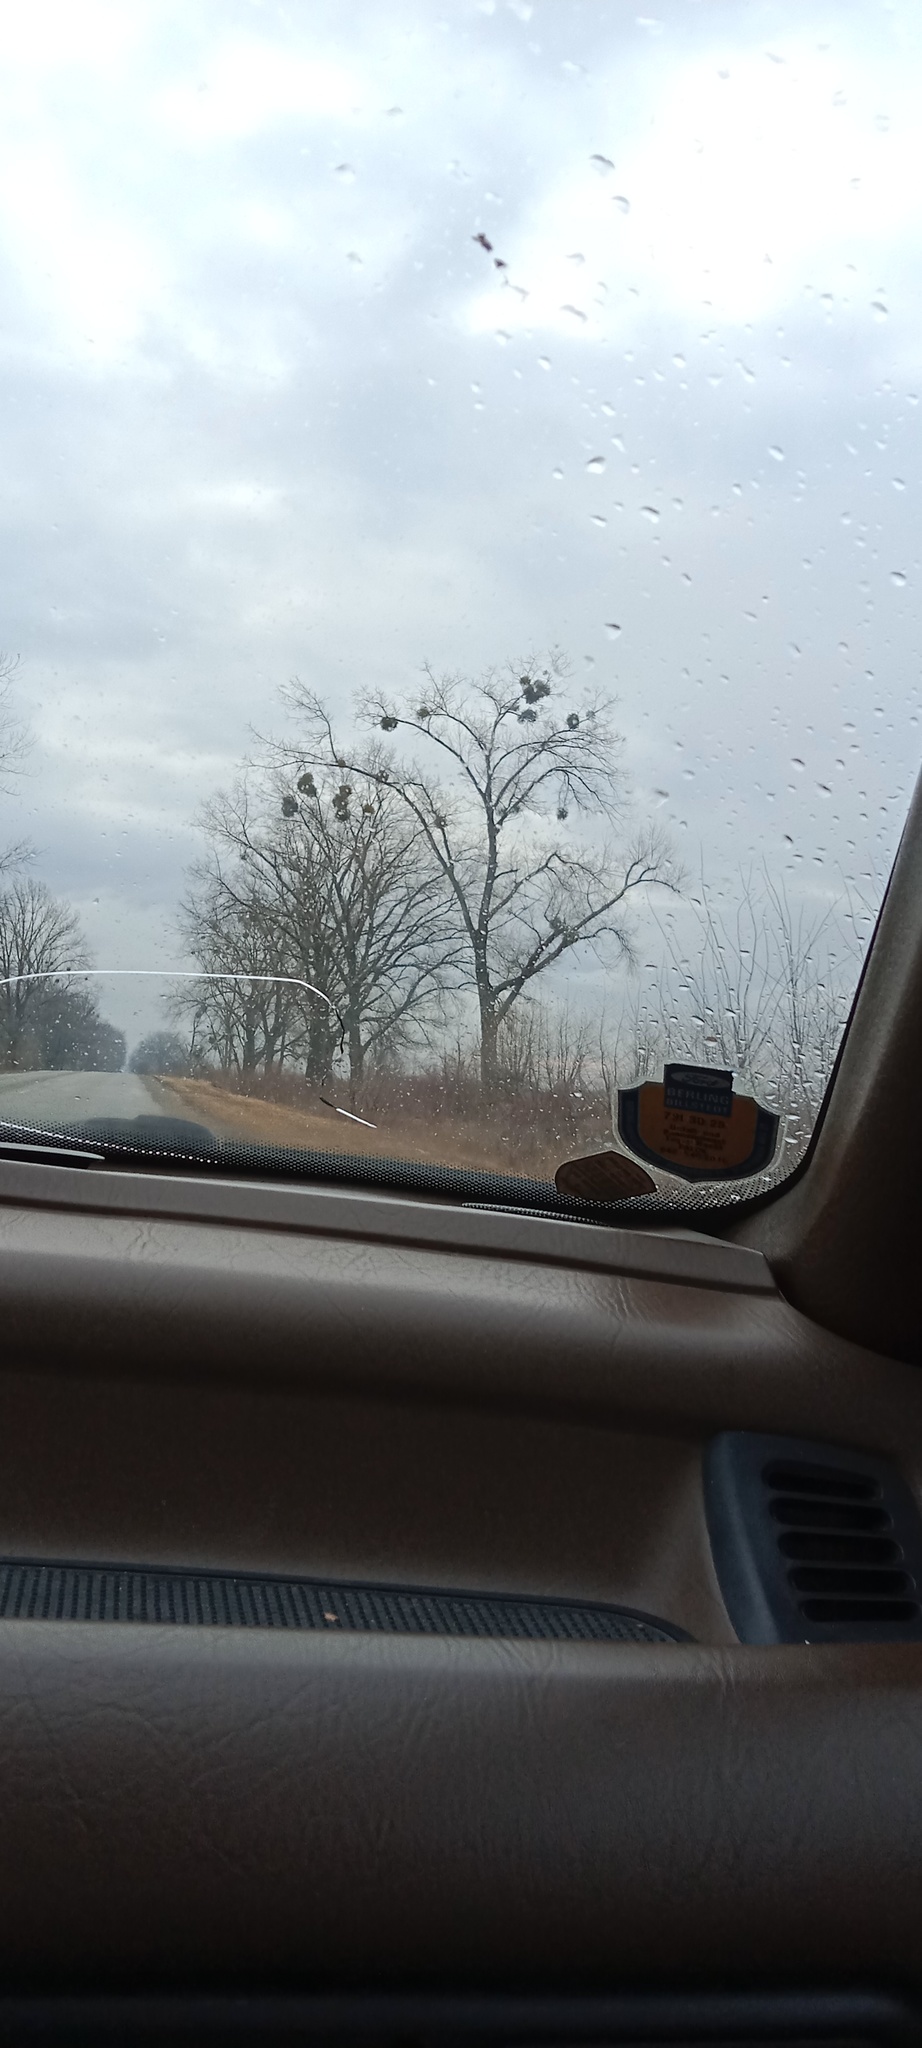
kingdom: Plantae
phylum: Tracheophyta
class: Magnoliopsida
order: Santalales
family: Viscaceae
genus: Viscum
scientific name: Viscum album
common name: Mistletoe
